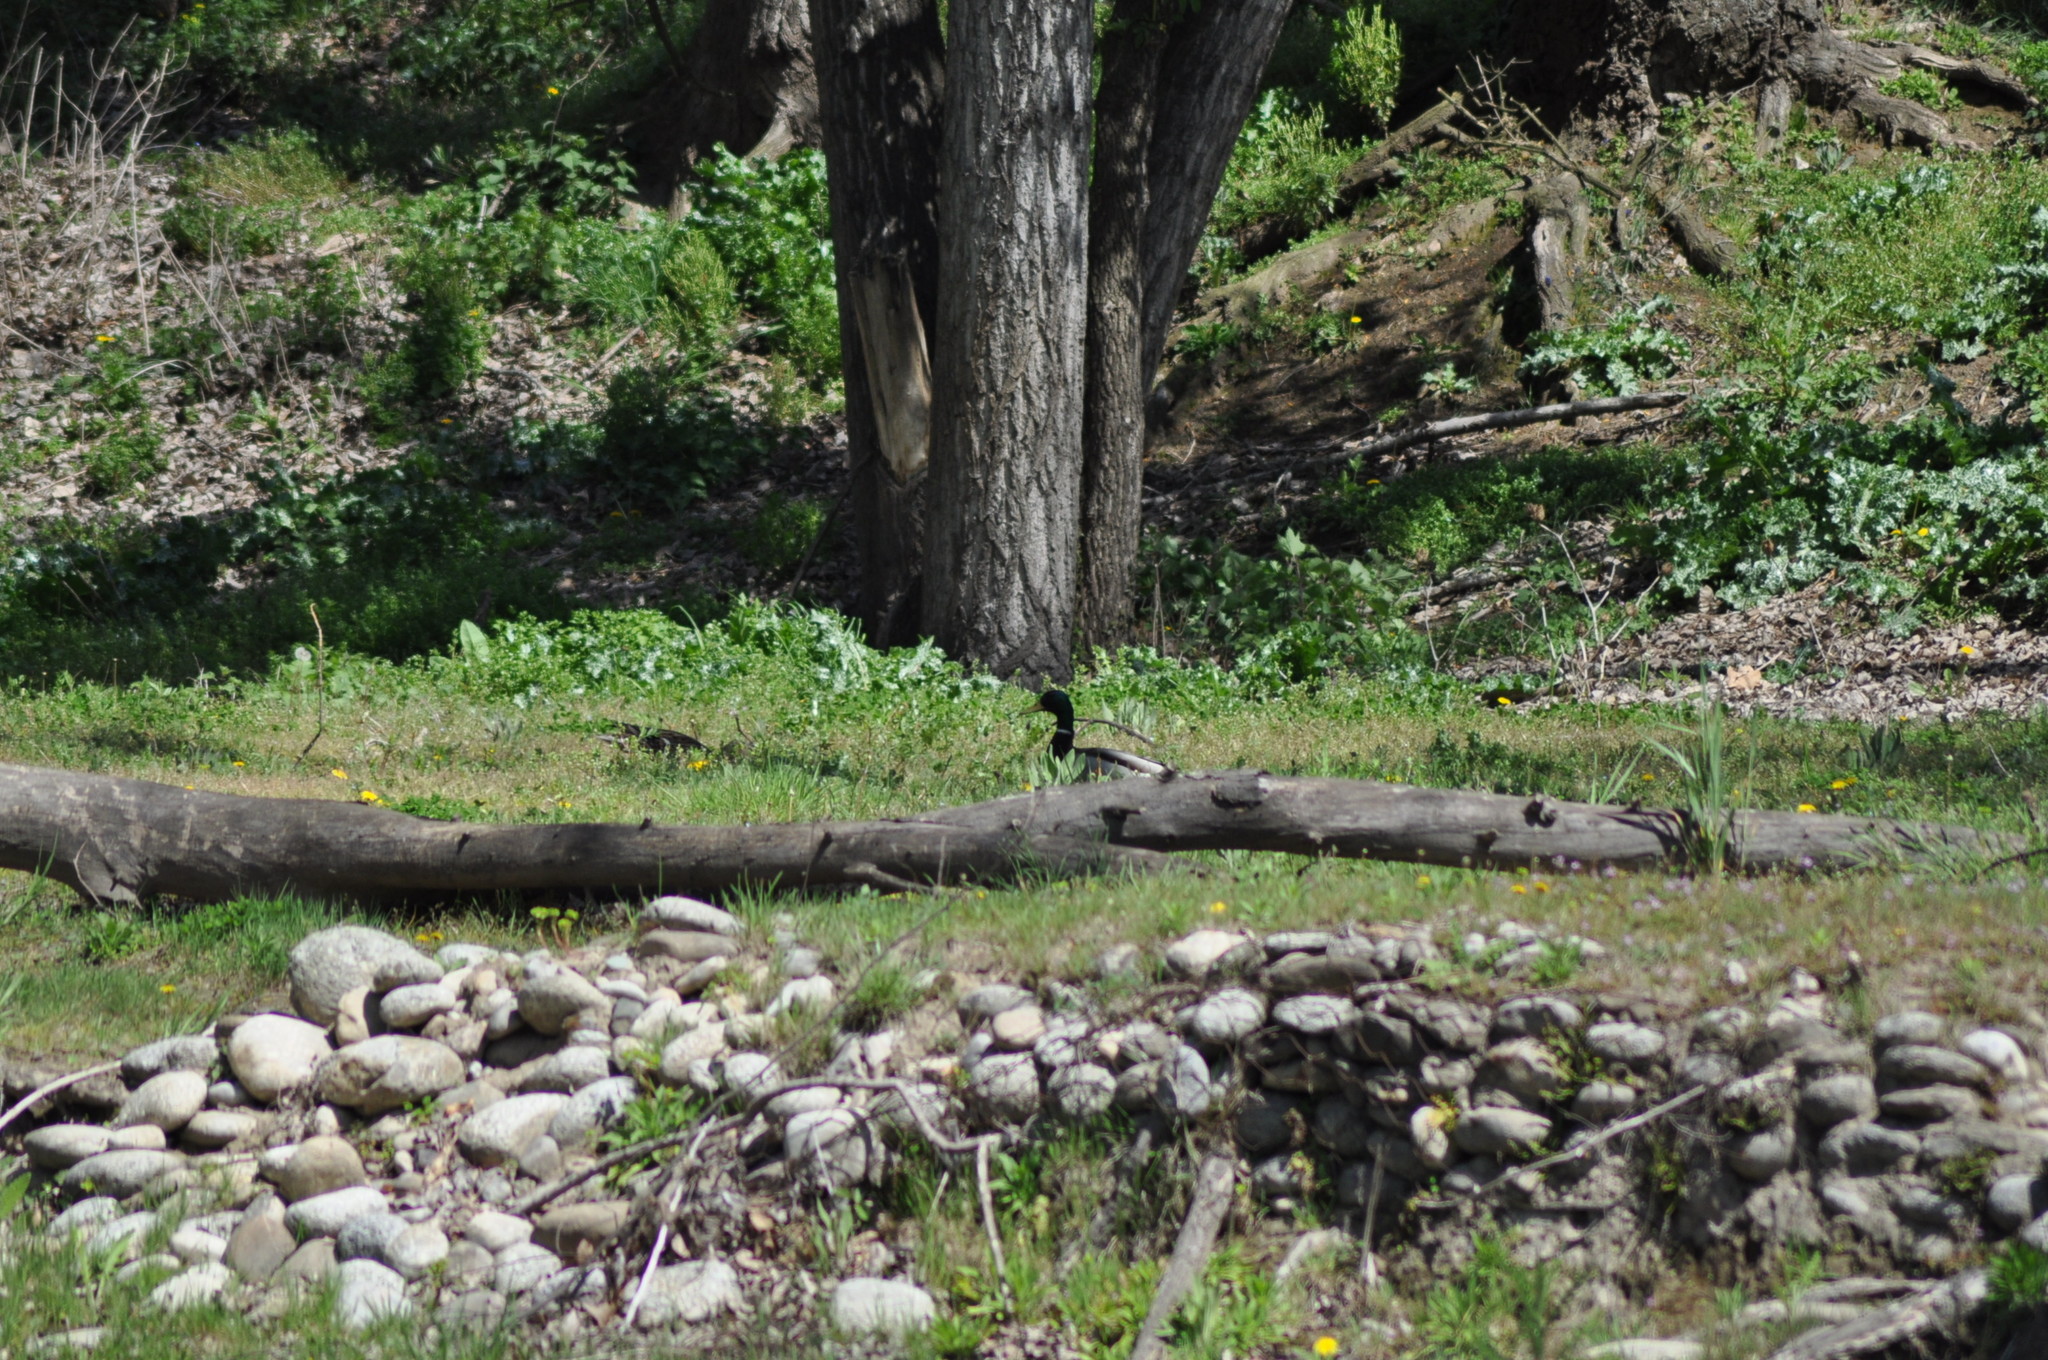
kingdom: Animalia
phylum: Chordata
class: Aves
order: Anseriformes
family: Anatidae
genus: Anas
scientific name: Anas platyrhynchos
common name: Mallard
